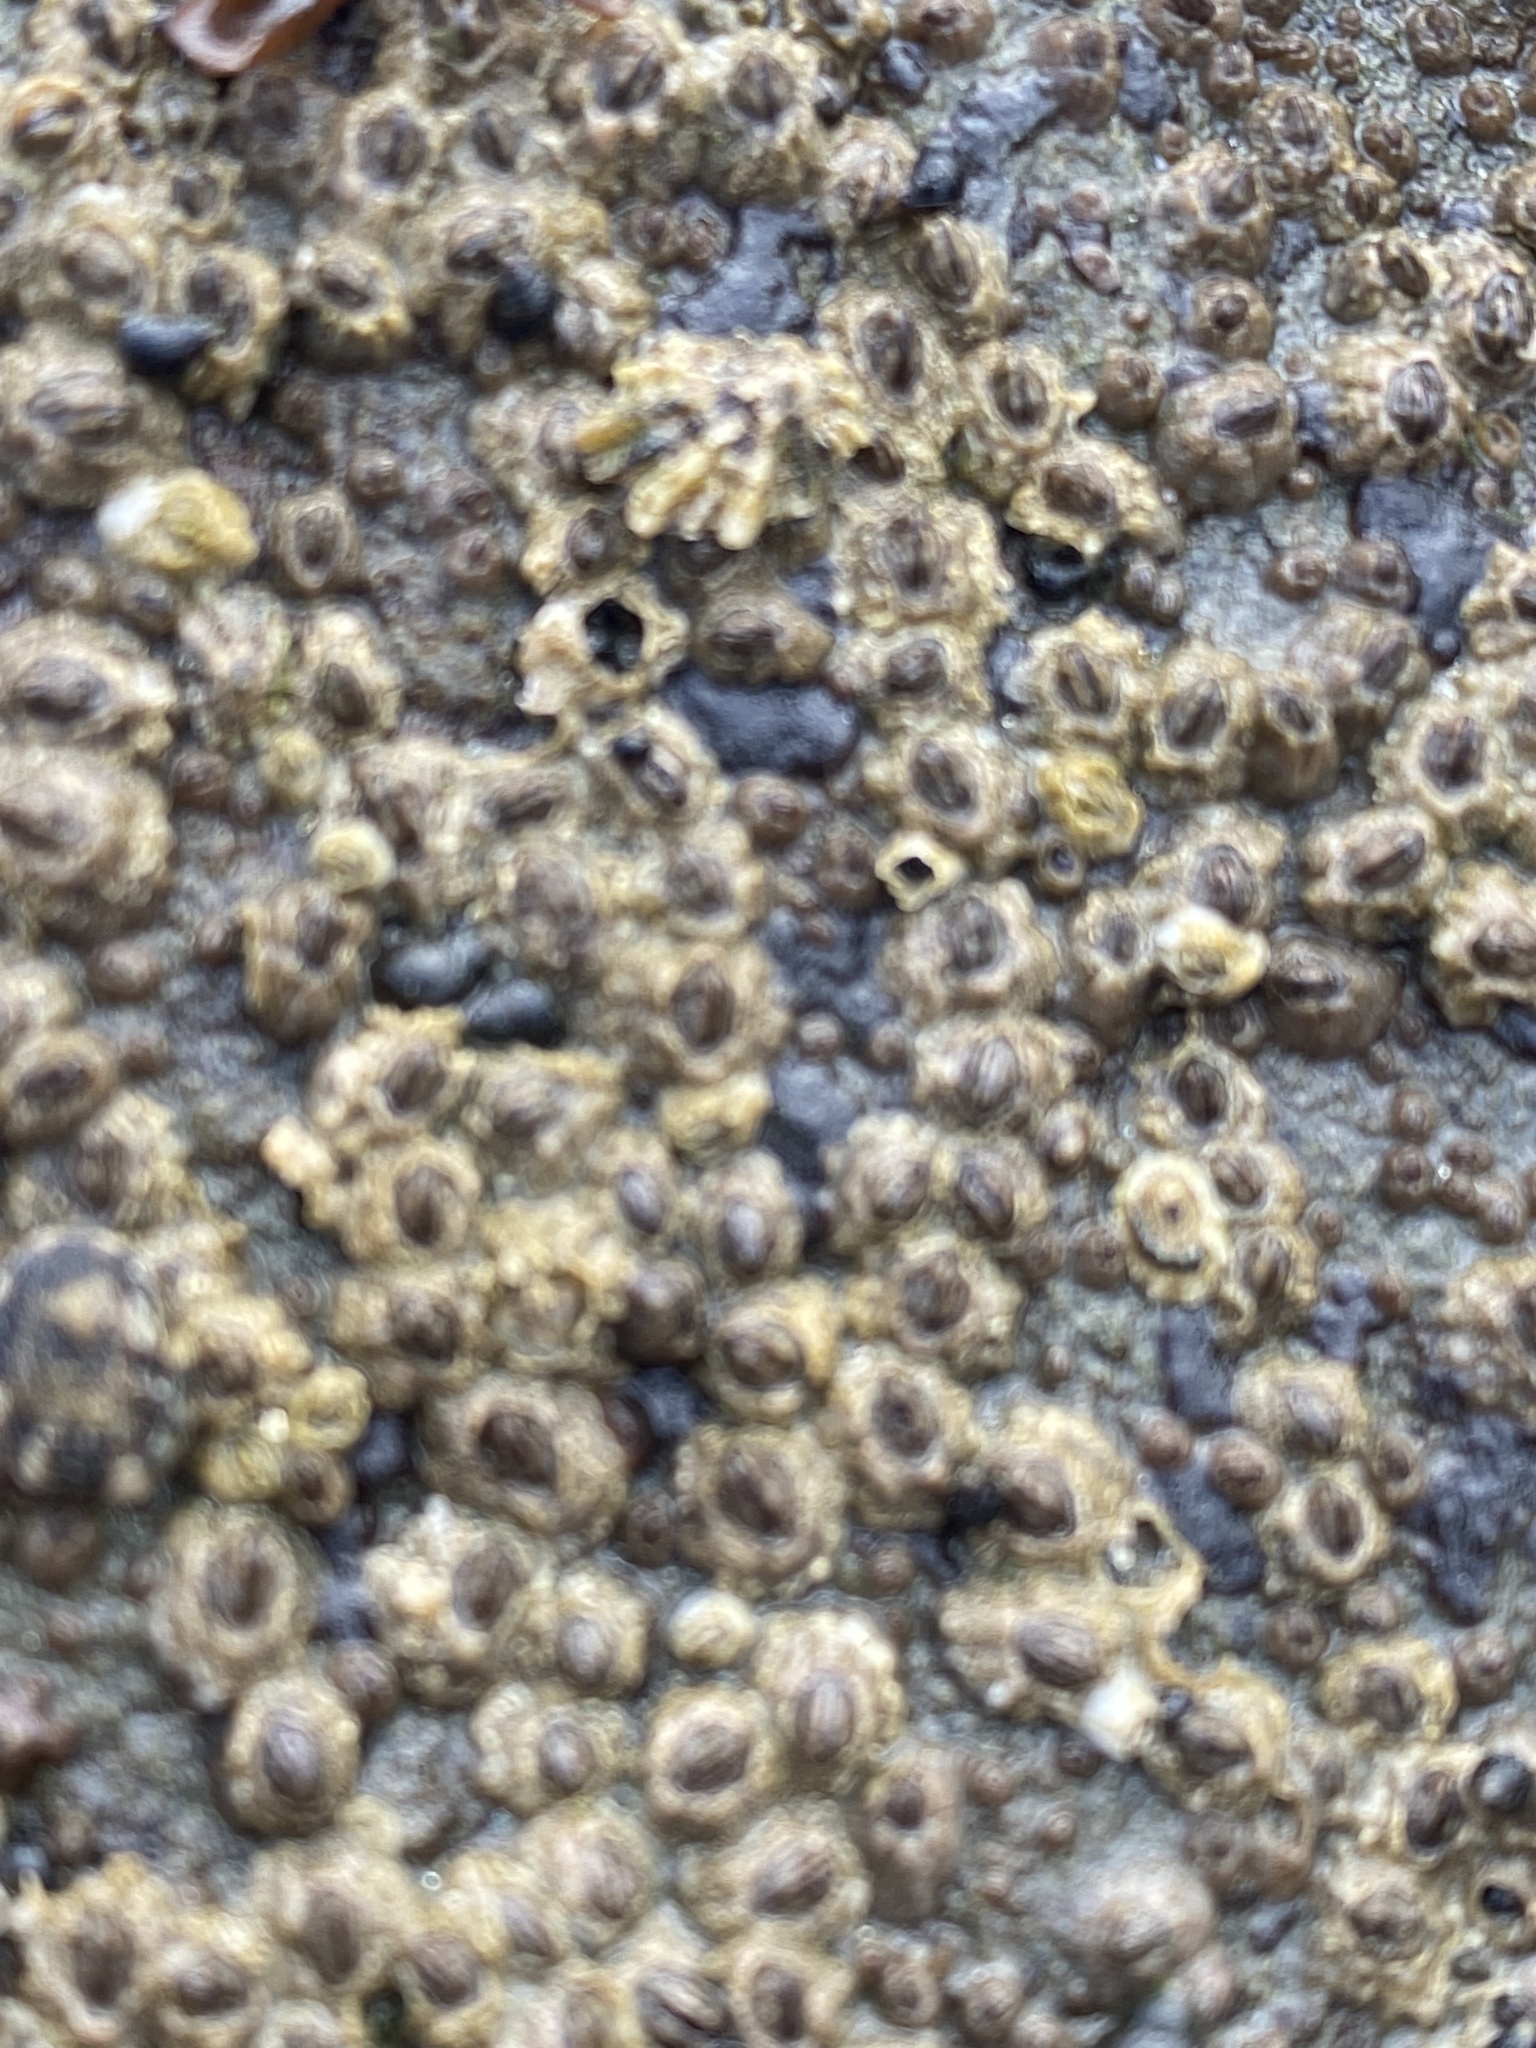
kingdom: Animalia
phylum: Arthropoda
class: Maxillopoda
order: Sessilia
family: Chthamalidae
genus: Chthamalus
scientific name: Chthamalus dalli
